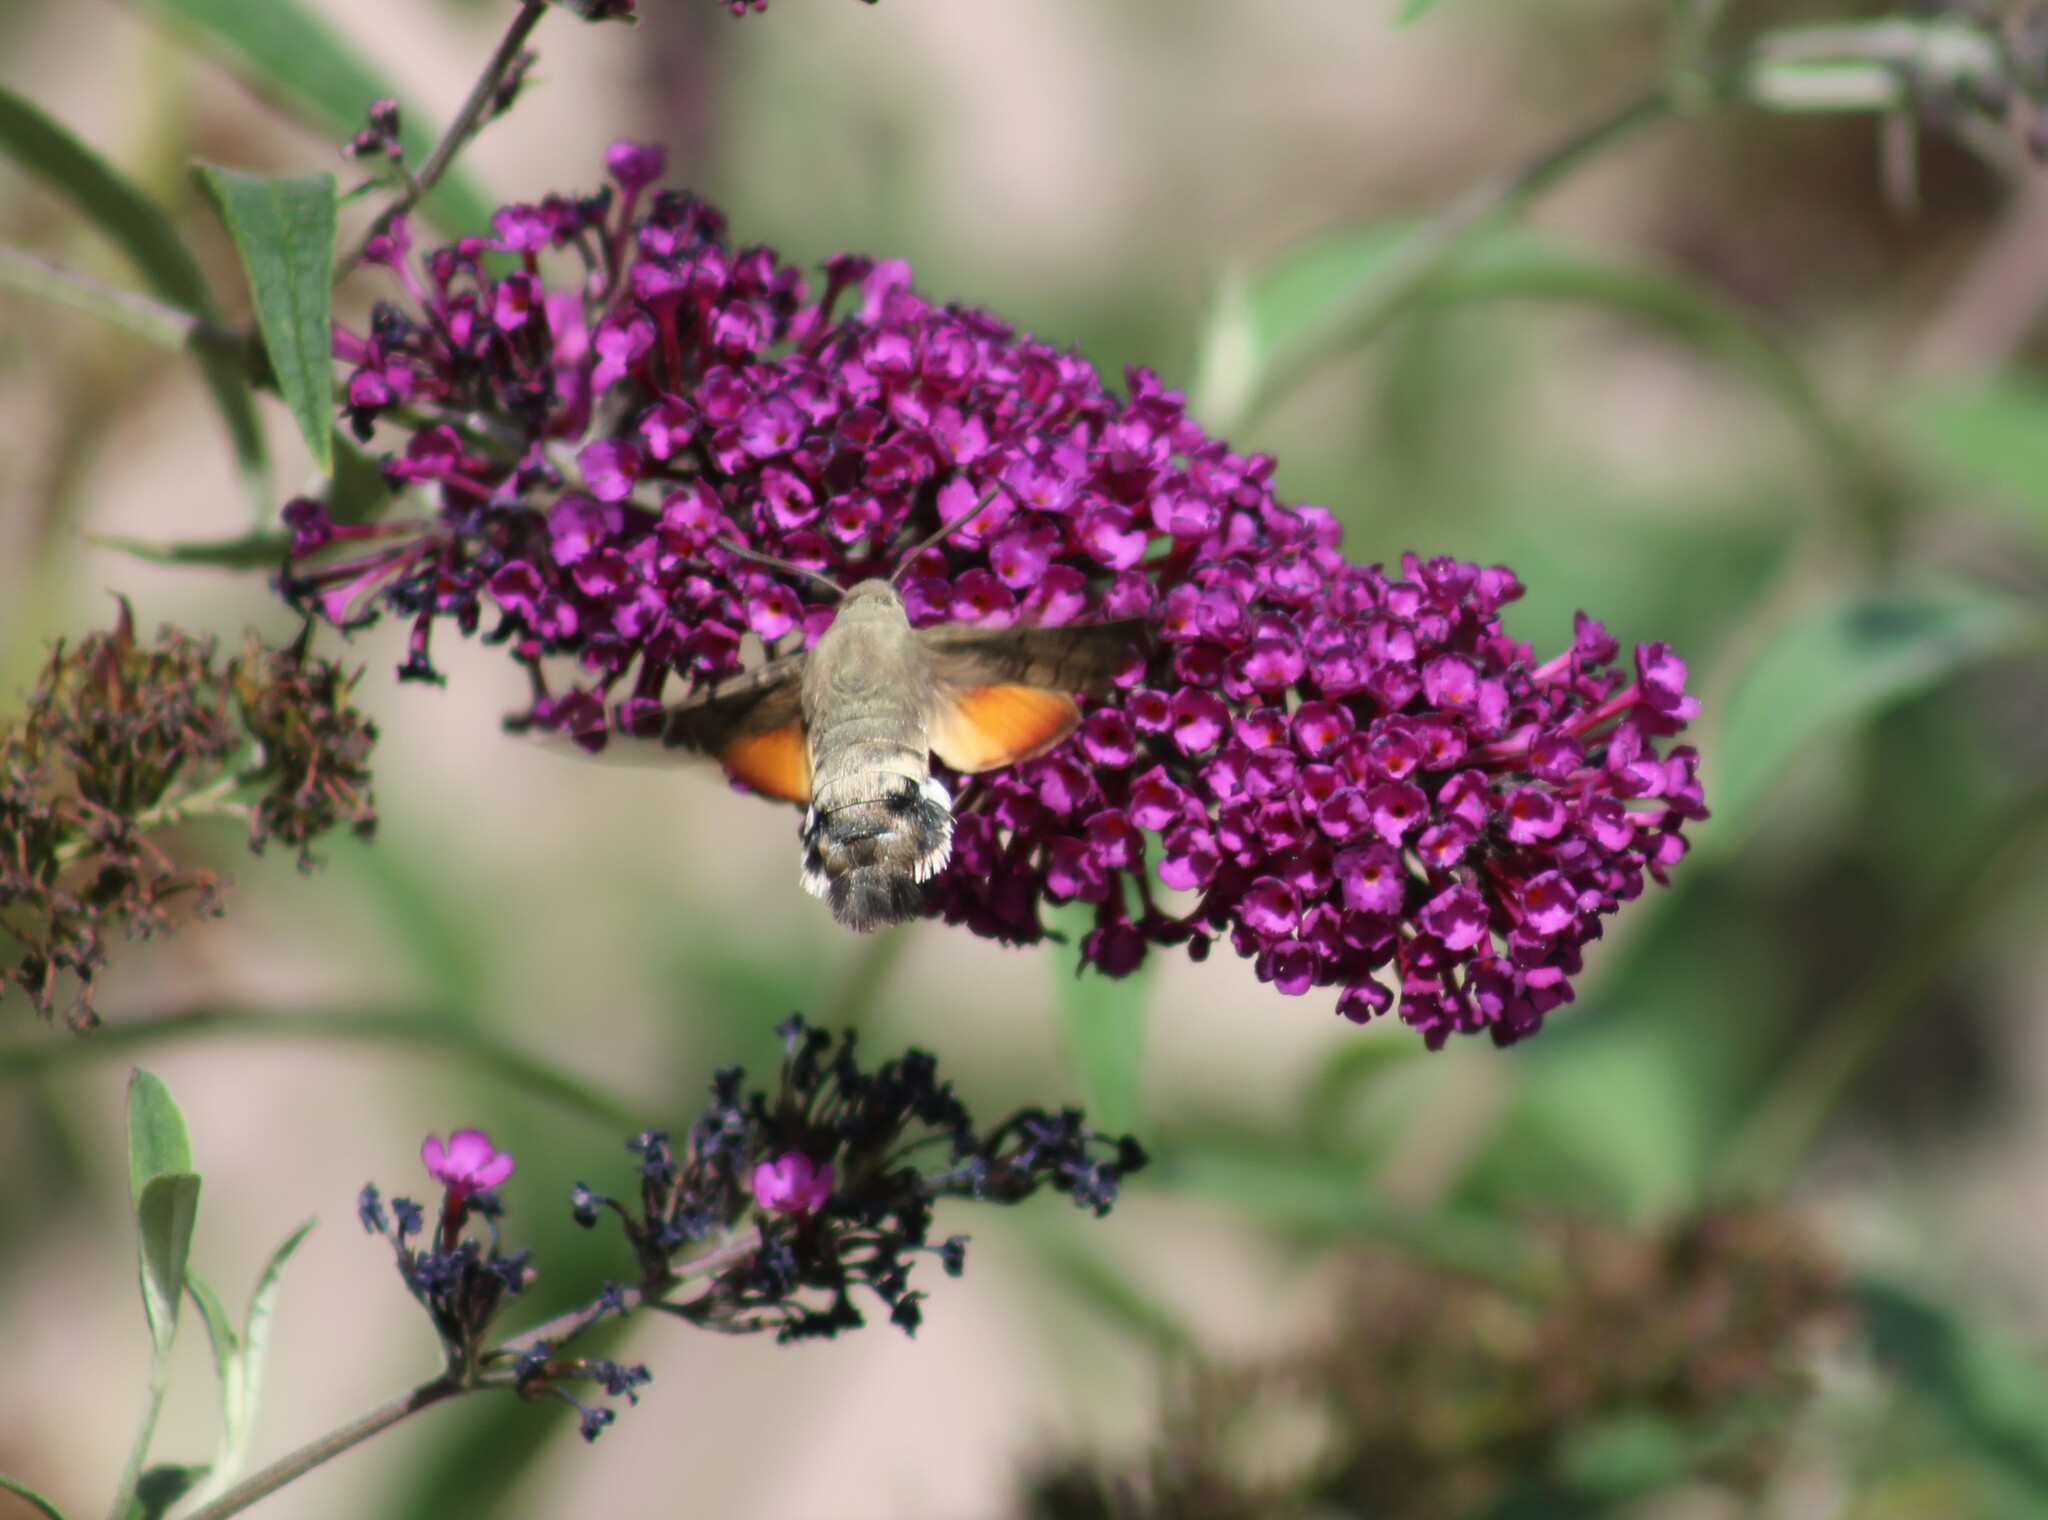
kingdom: Animalia
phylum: Arthropoda
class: Insecta
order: Lepidoptera
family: Sphingidae
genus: Macroglossum
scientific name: Macroglossum stellatarum
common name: Humming-bird hawk-moth
